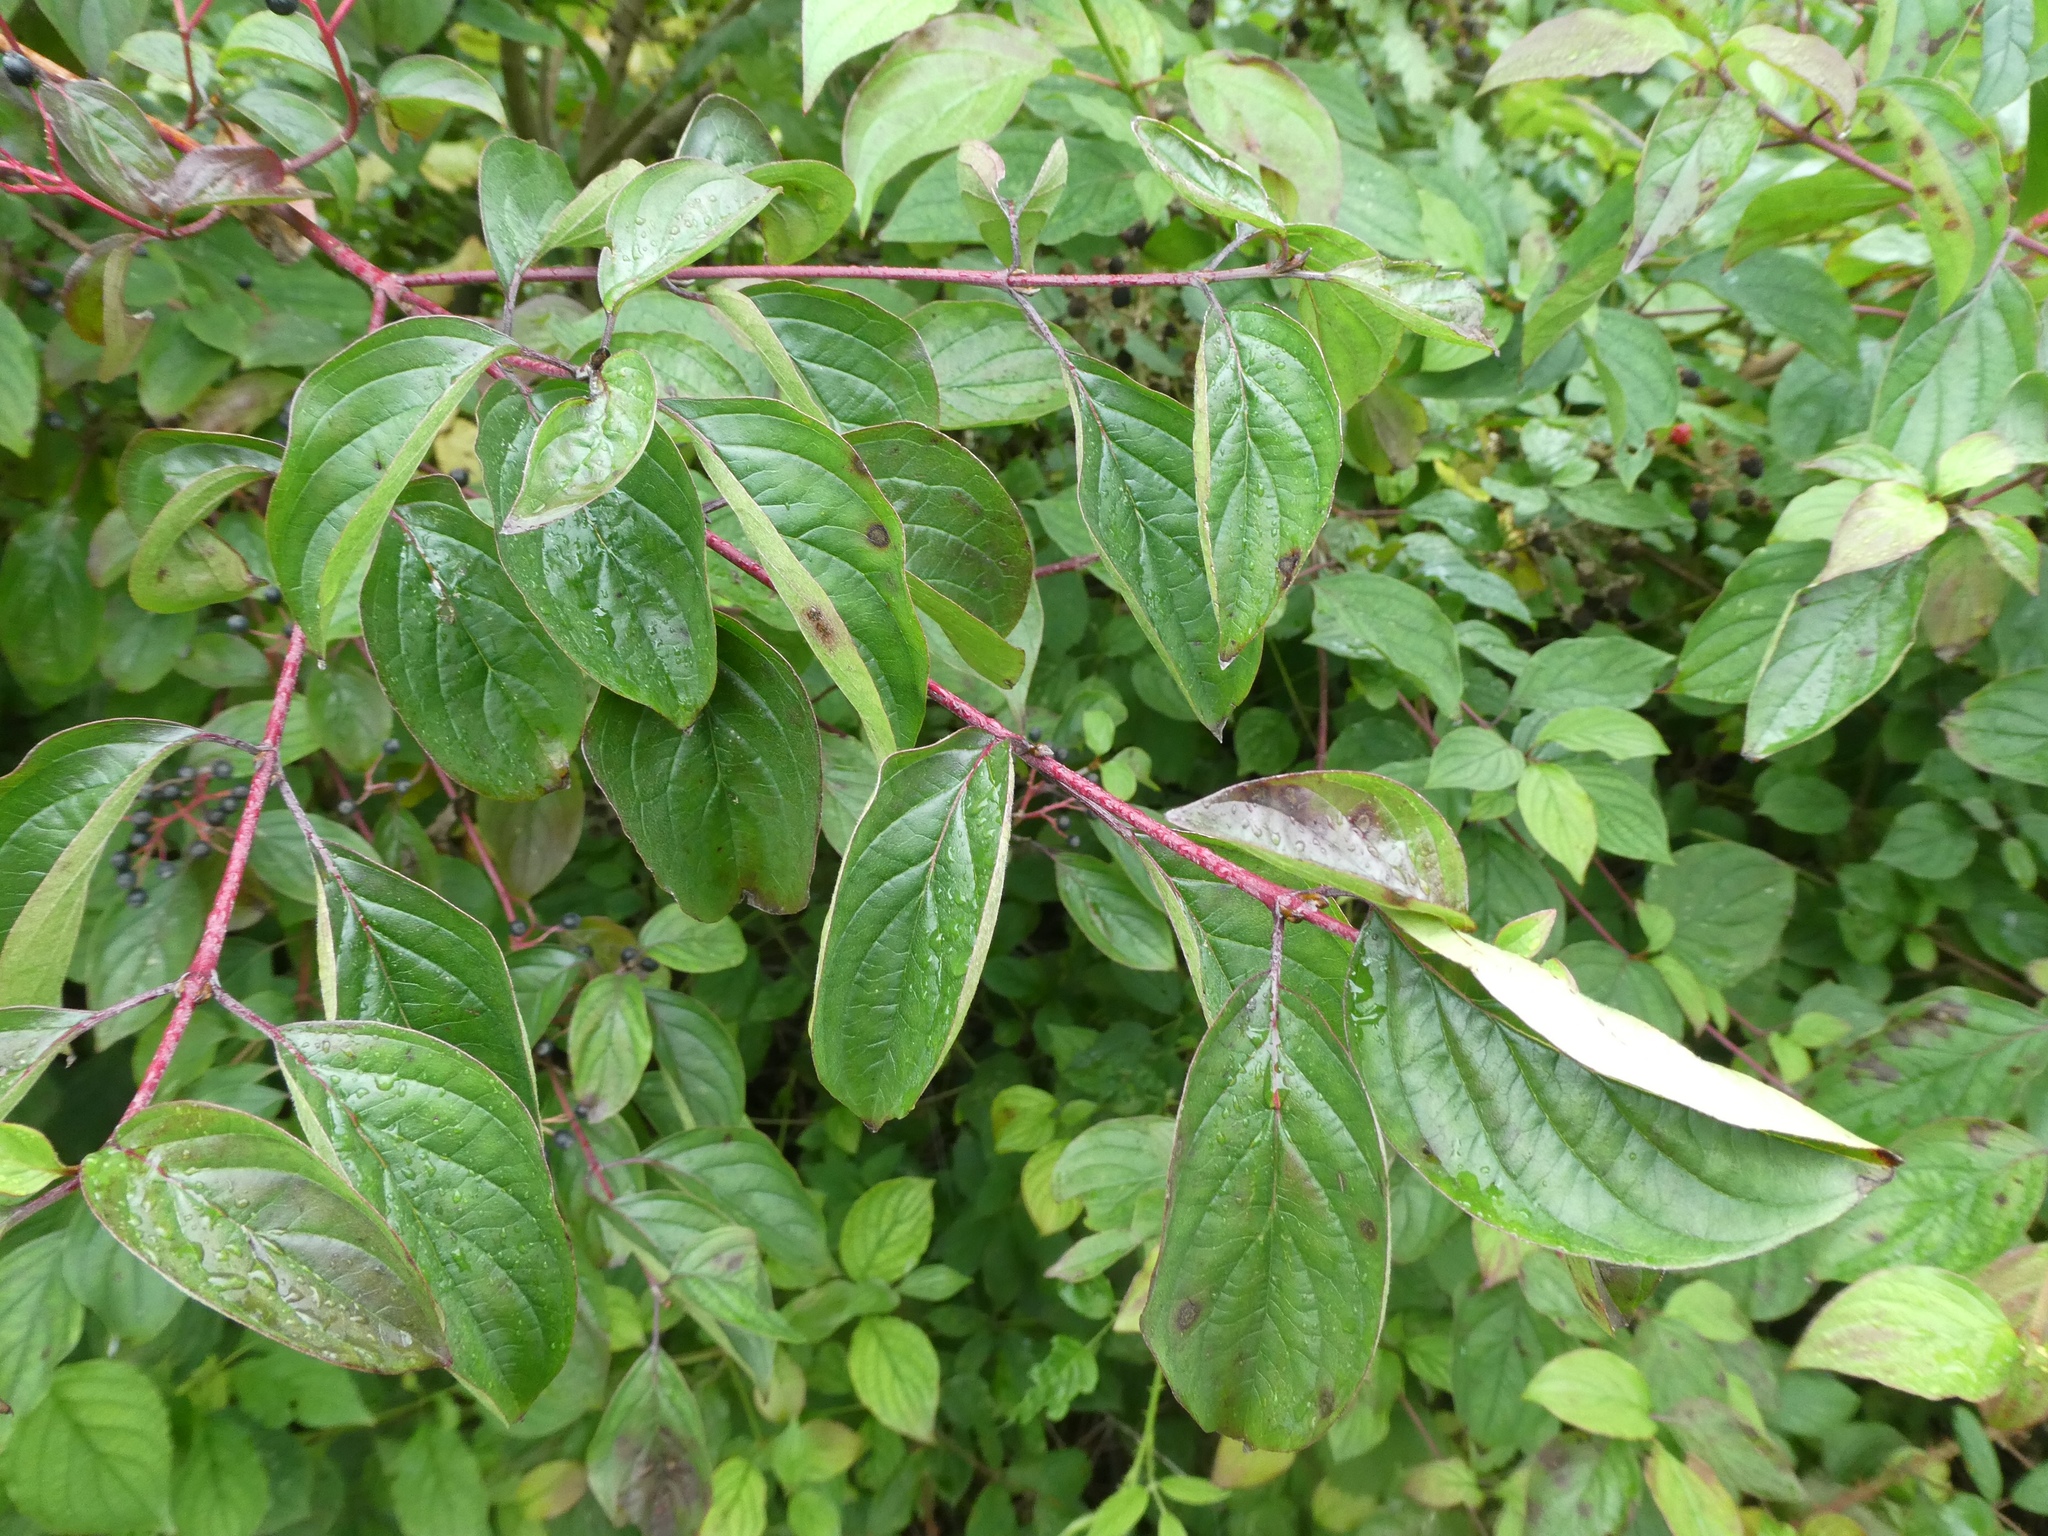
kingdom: Plantae
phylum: Tracheophyta
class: Magnoliopsida
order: Cornales
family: Cornaceae
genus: Cornus
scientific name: Cornus sanguinea
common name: Dogwood
